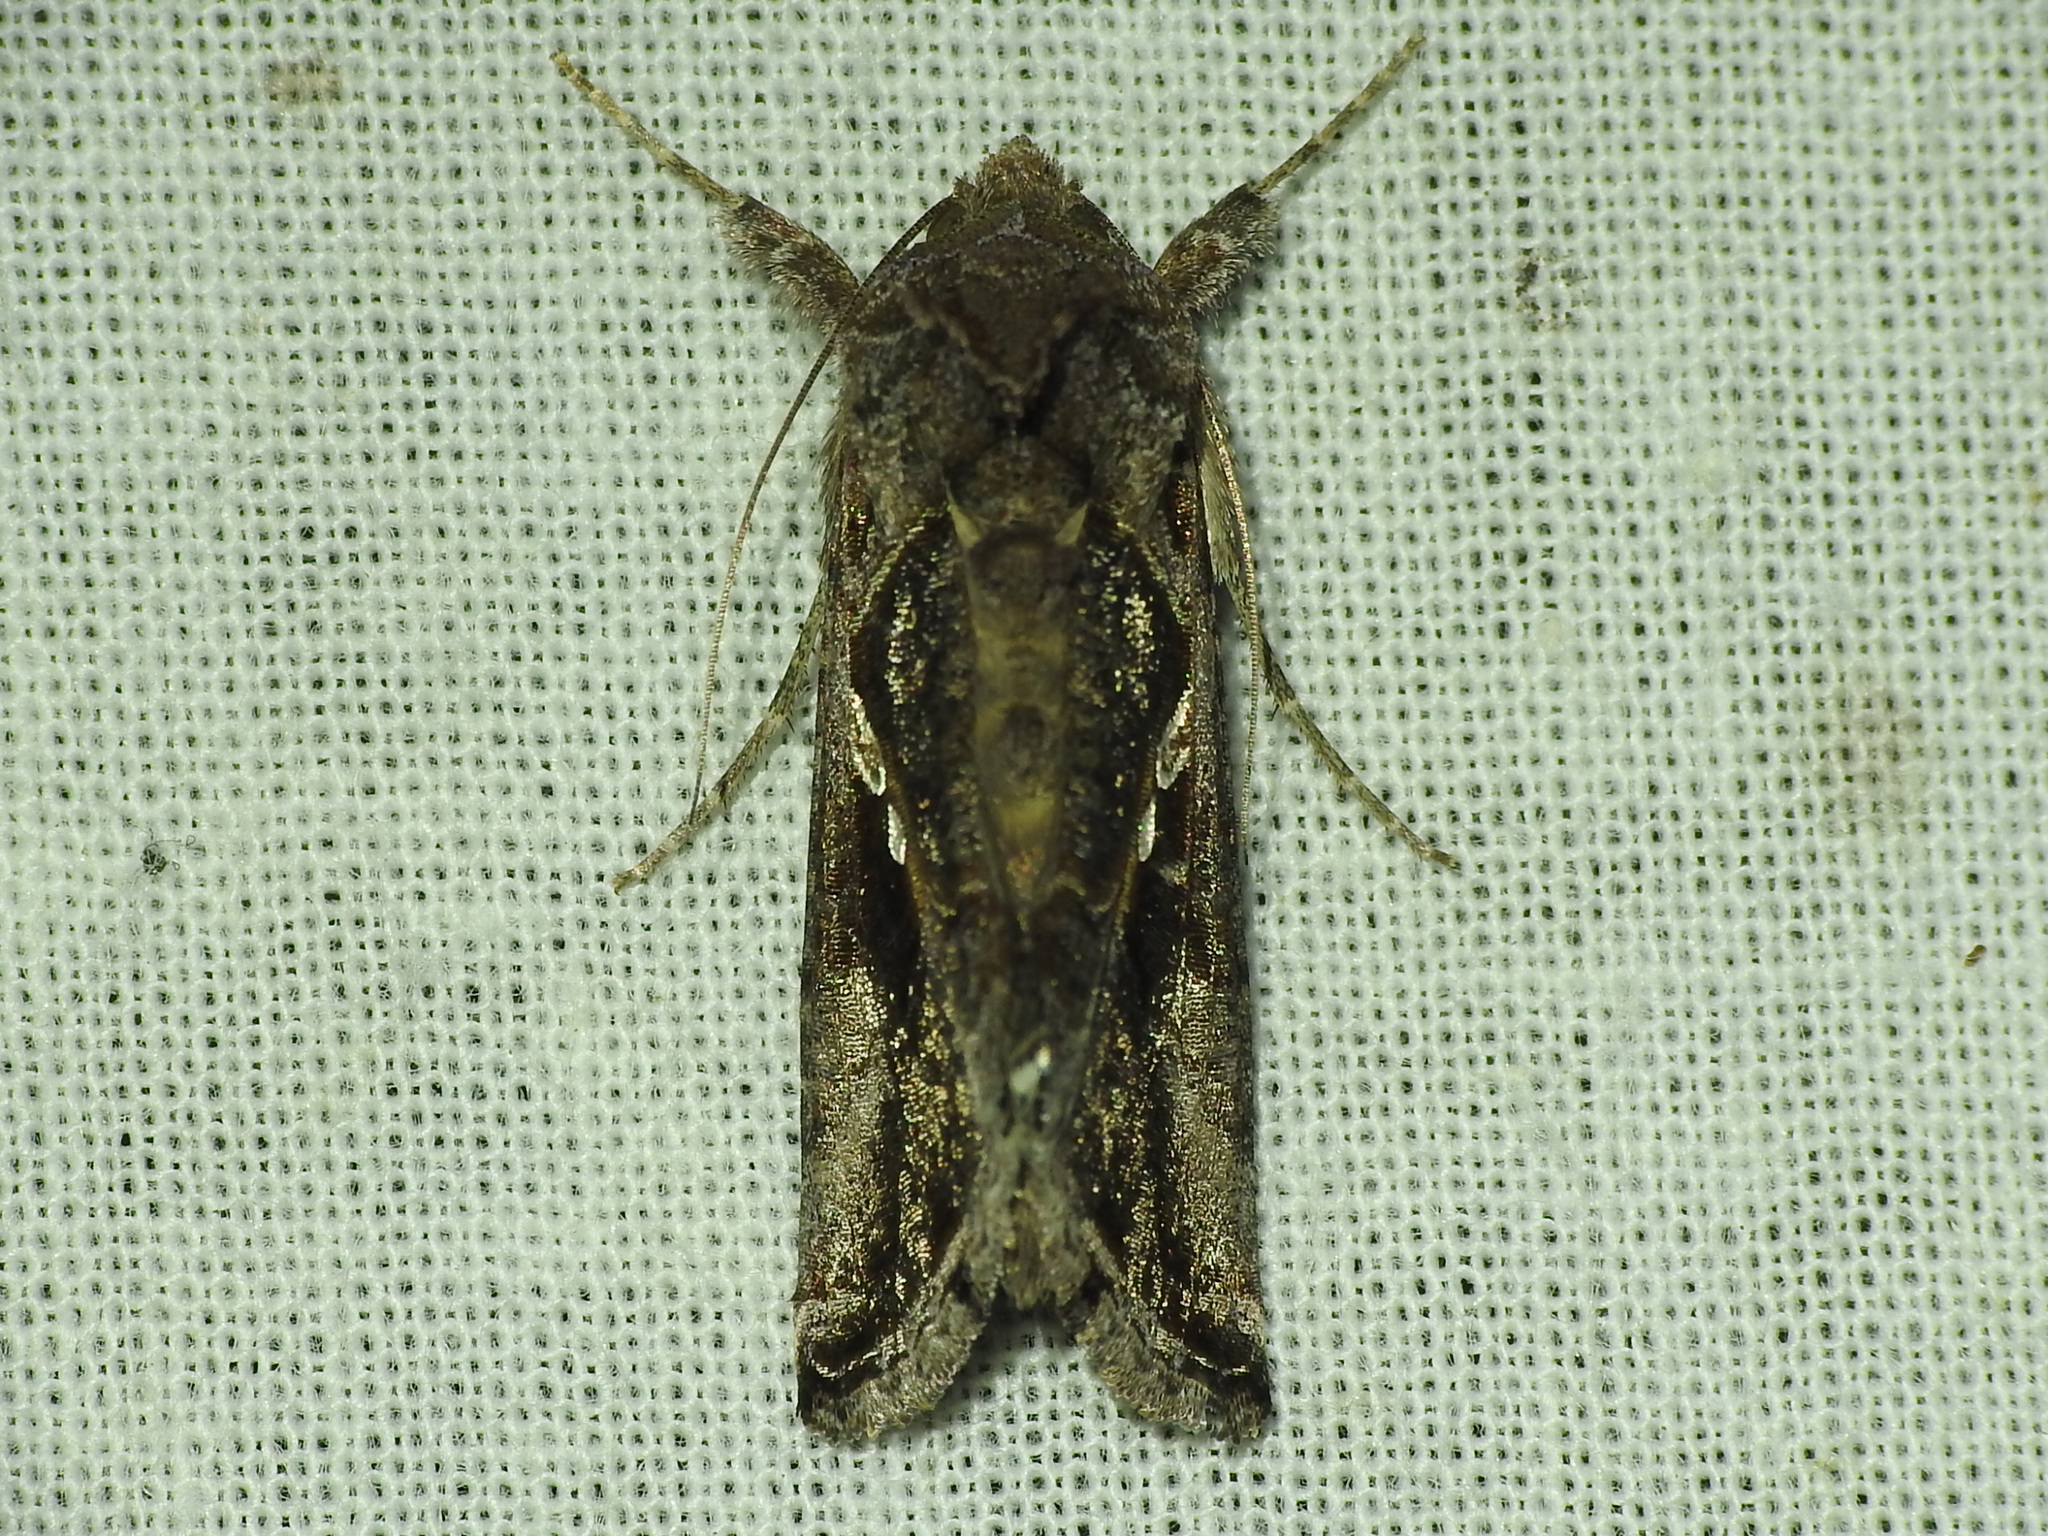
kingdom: Animalia
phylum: Arthropoda
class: Insecta
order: Lepidoptera
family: Noctuidae
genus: Chrysodeixis
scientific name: Chrysodeixis includens
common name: Cutworm moth
